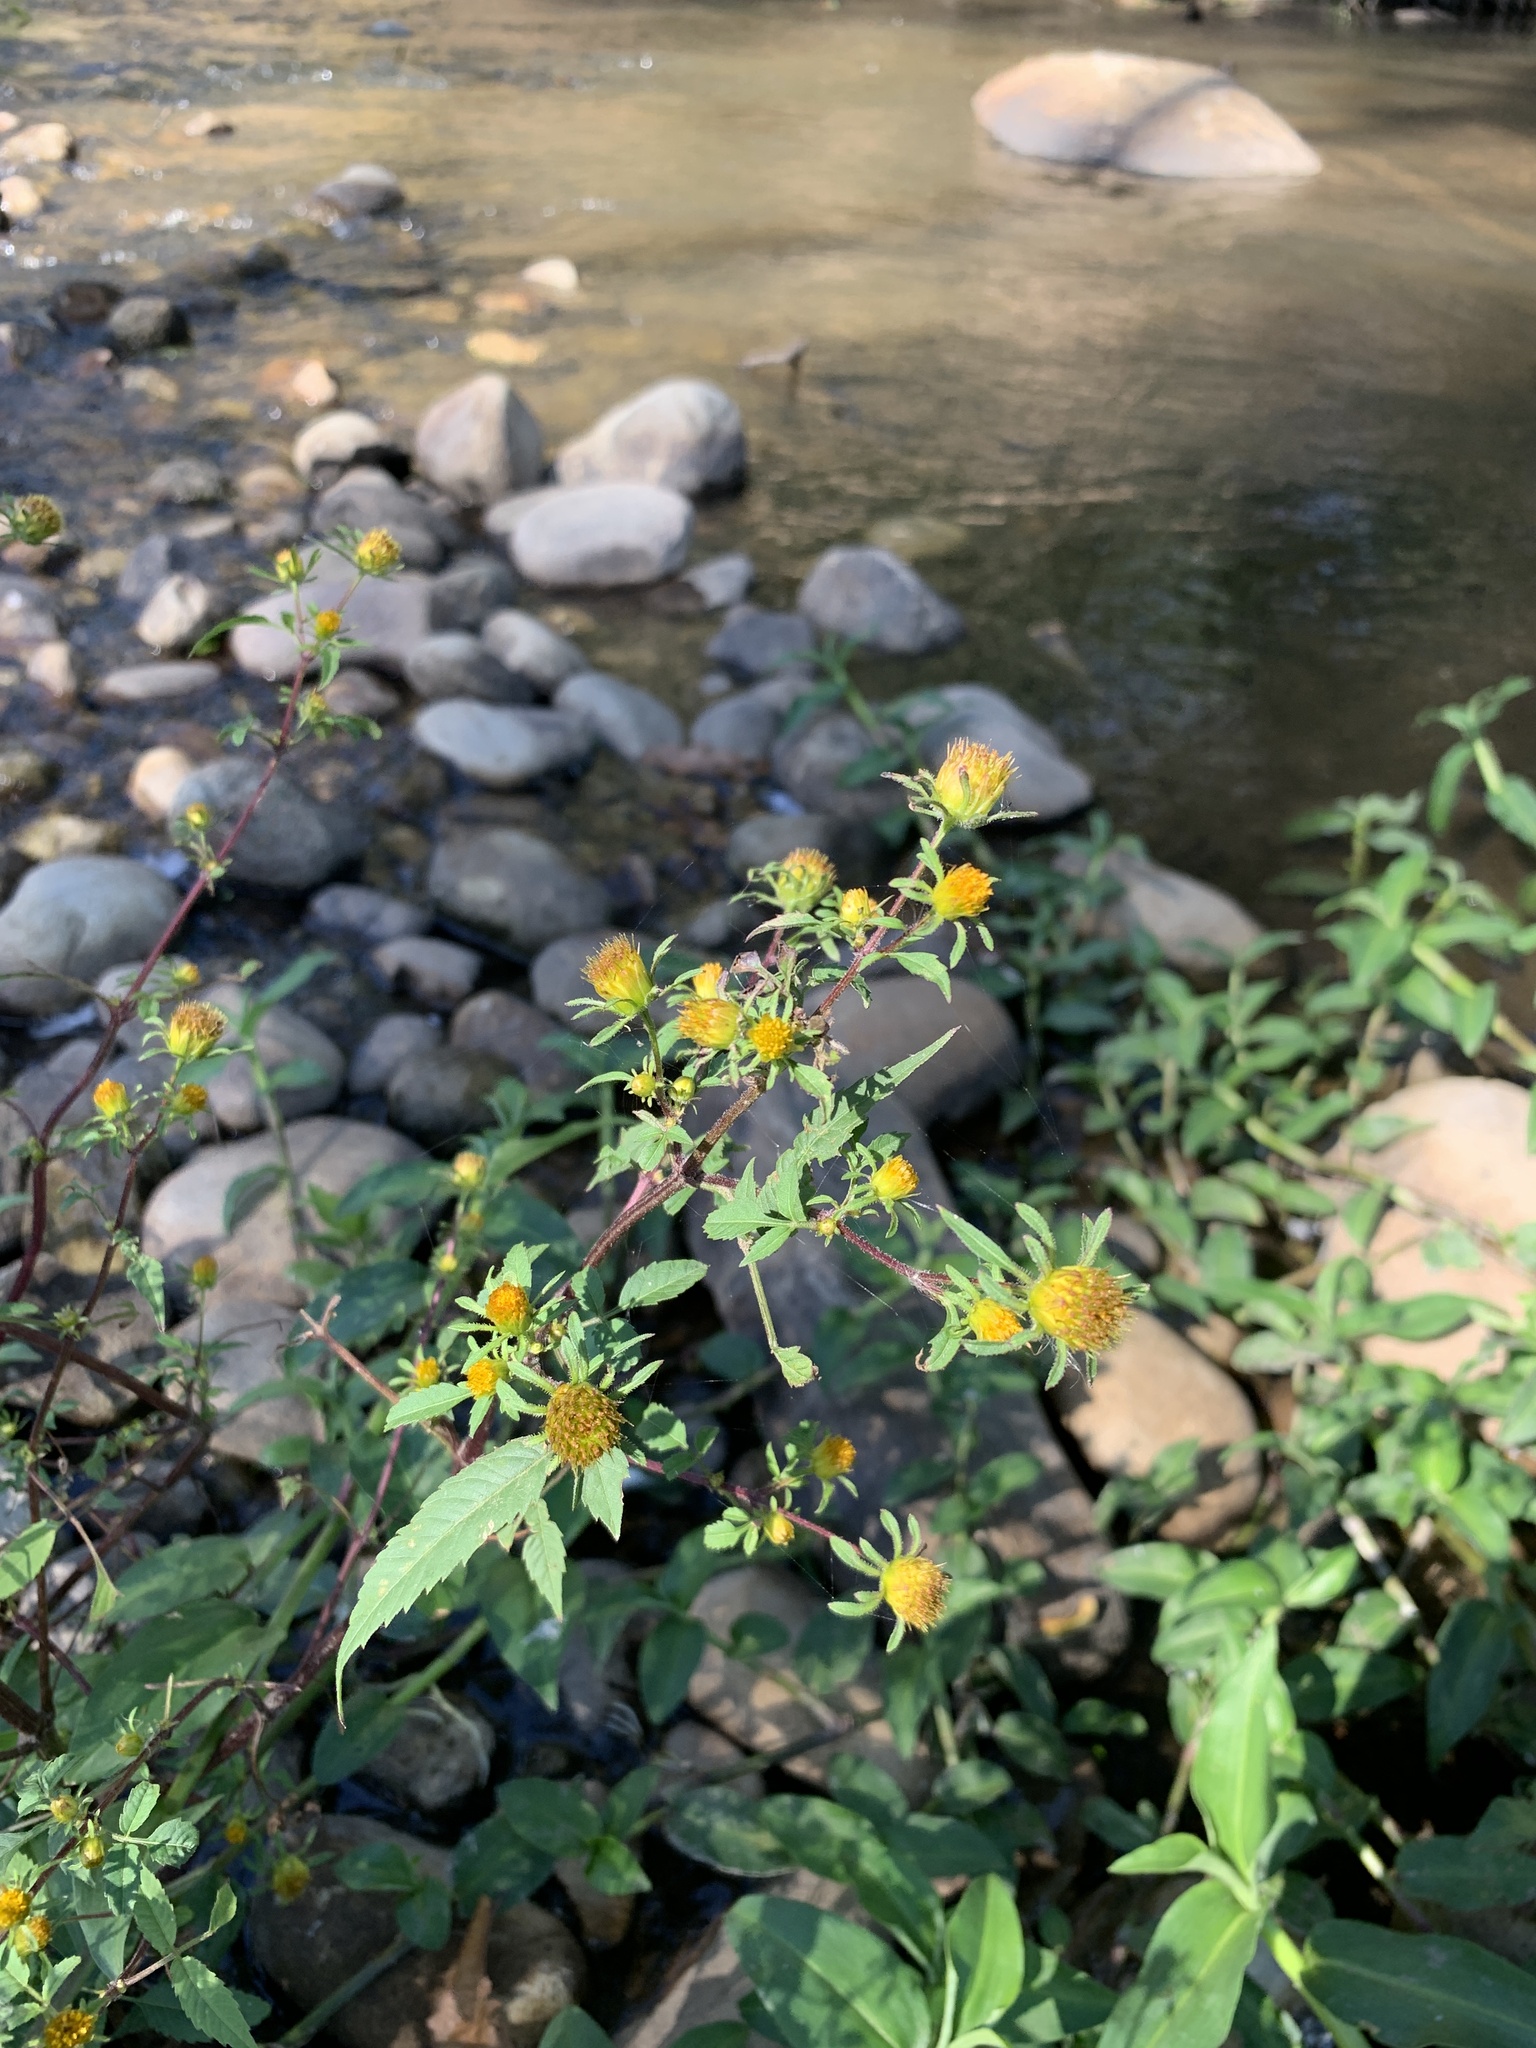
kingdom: Plantae
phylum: Tracheophyta
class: Magnoliopsida
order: Asterales
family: Asteraceae
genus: Bidens
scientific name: Bidens frondosa
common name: Beggarticks
